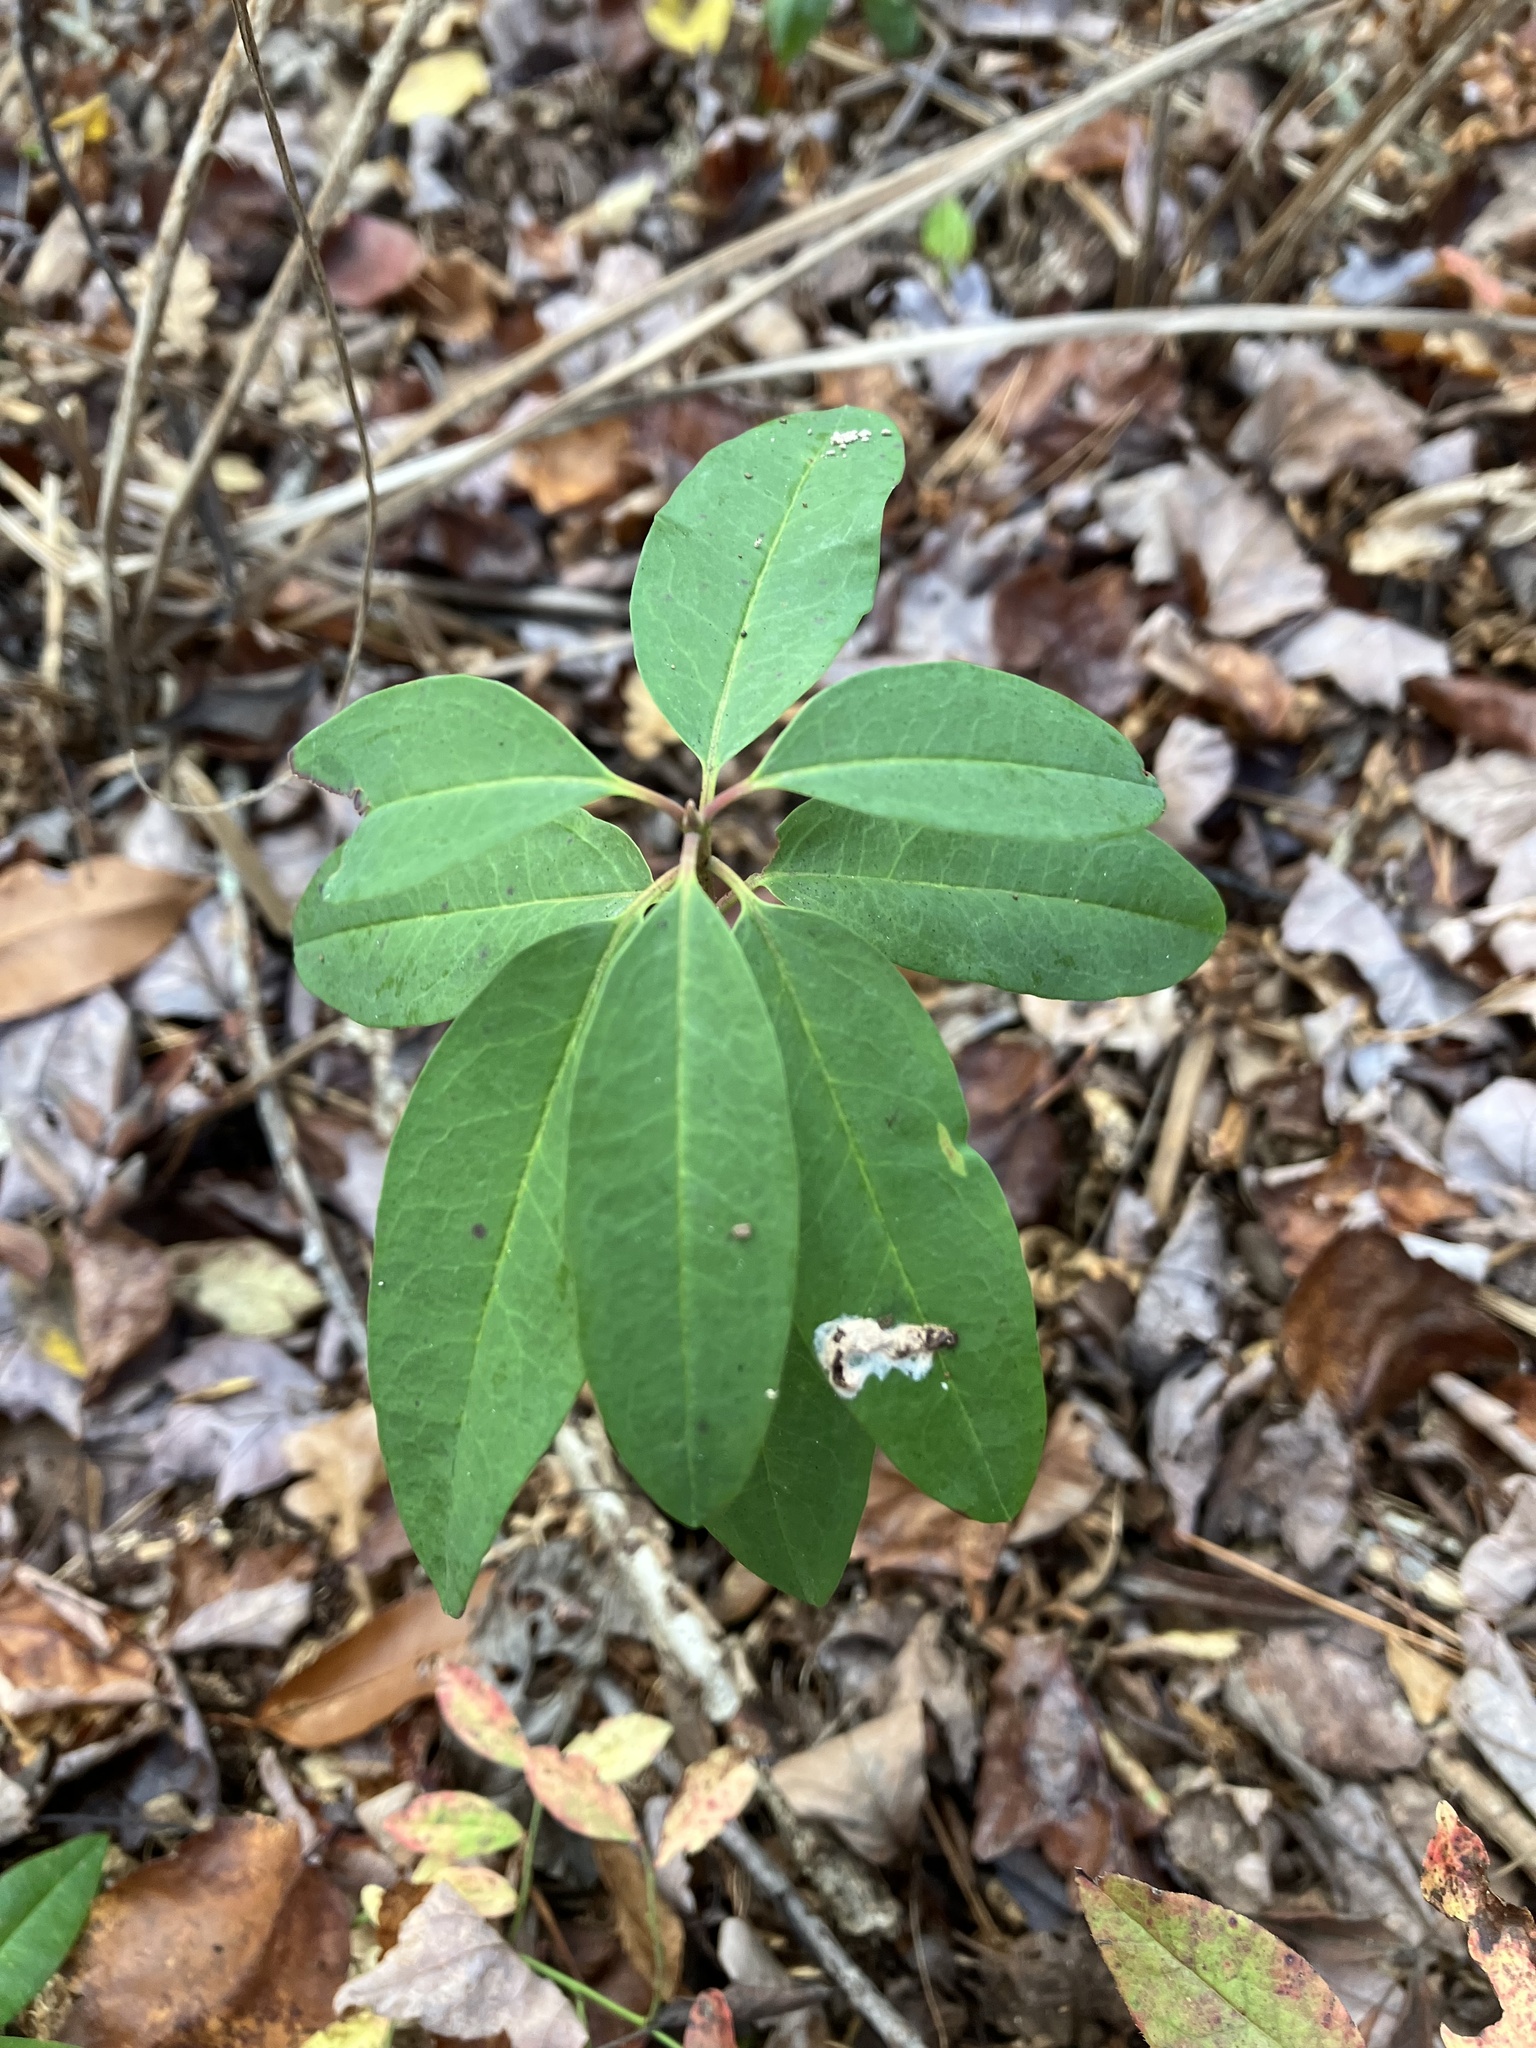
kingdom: Plantae
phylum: Tracheophyta
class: Magnoliopsida
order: Ericales
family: Ericaceae
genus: Kalmia
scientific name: Kalmia angustifolia
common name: Sheep-laurel
